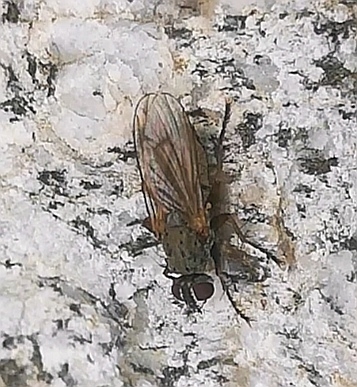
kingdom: Animalia
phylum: Arthropoda
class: Insecta
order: Diptera
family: Muscidae
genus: Coenosia
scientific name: Coenosia tigrina
